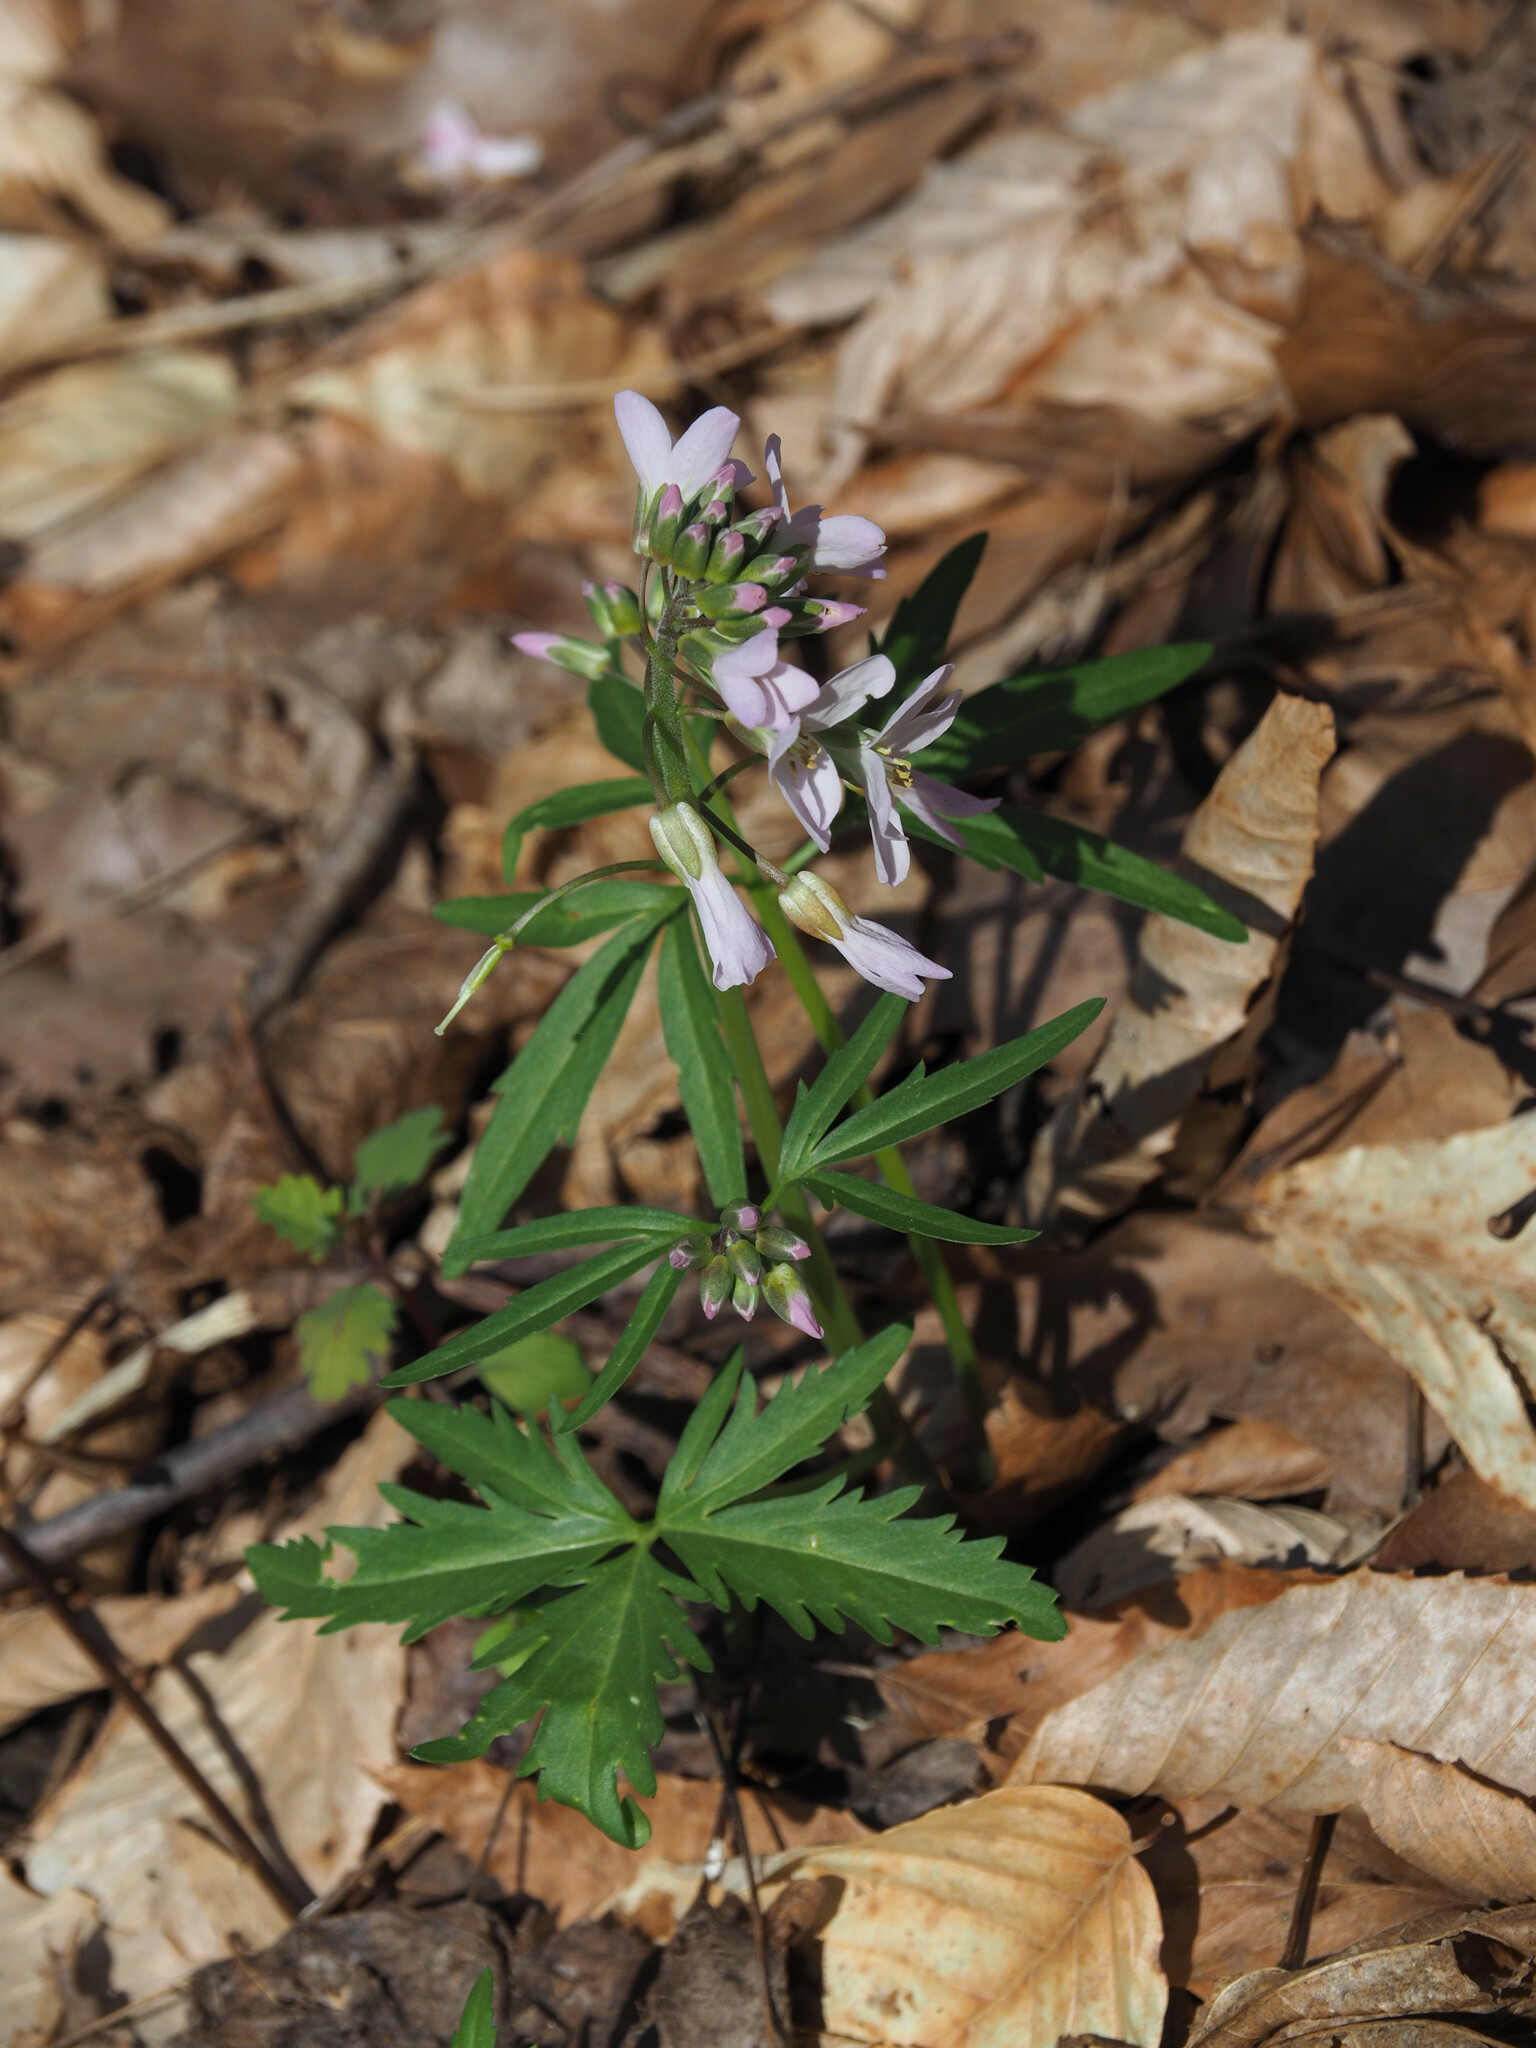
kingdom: Plantae
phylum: Tracheophyta
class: Magnoliopsida
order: Brassicales
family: Brassicaceae
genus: Cardamine
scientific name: Cardamine concatenata
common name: Cut-leaf toothcup
